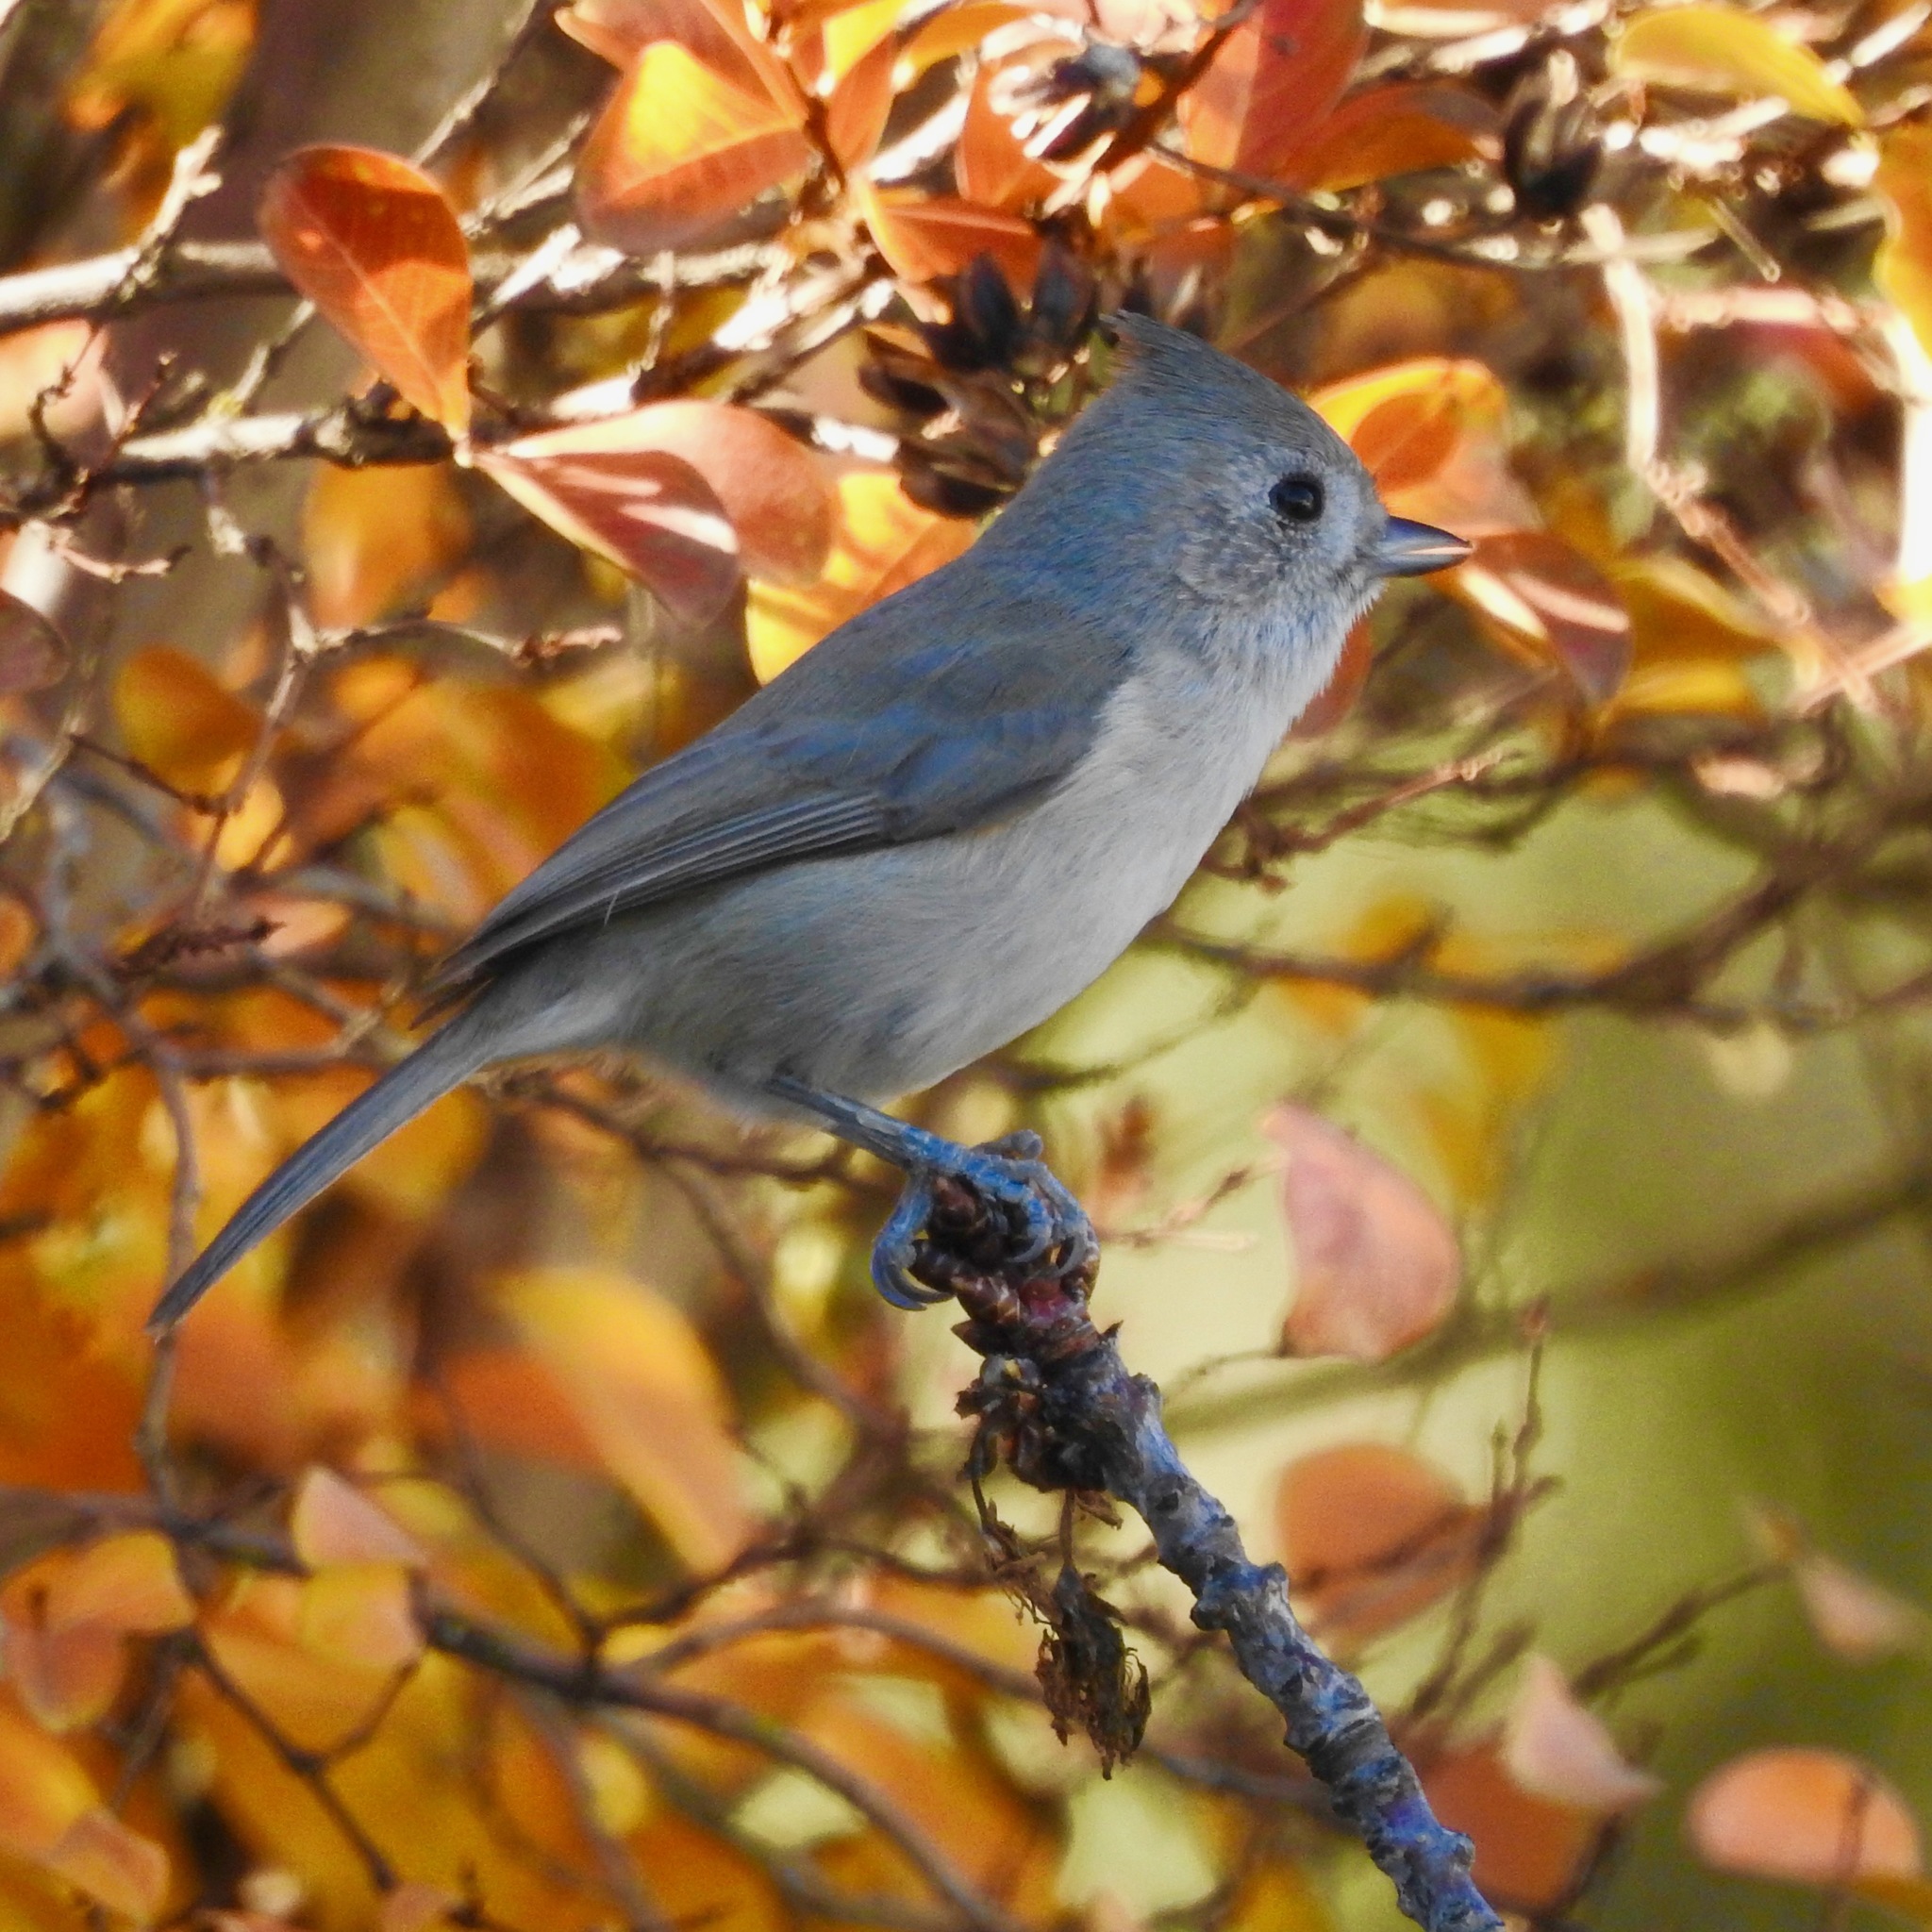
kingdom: Animalia
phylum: Chordata
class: Aves
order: Passeriformes
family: Paridae
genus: Baeolophus
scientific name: Baeolophus inornatus
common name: Oak titmouse
